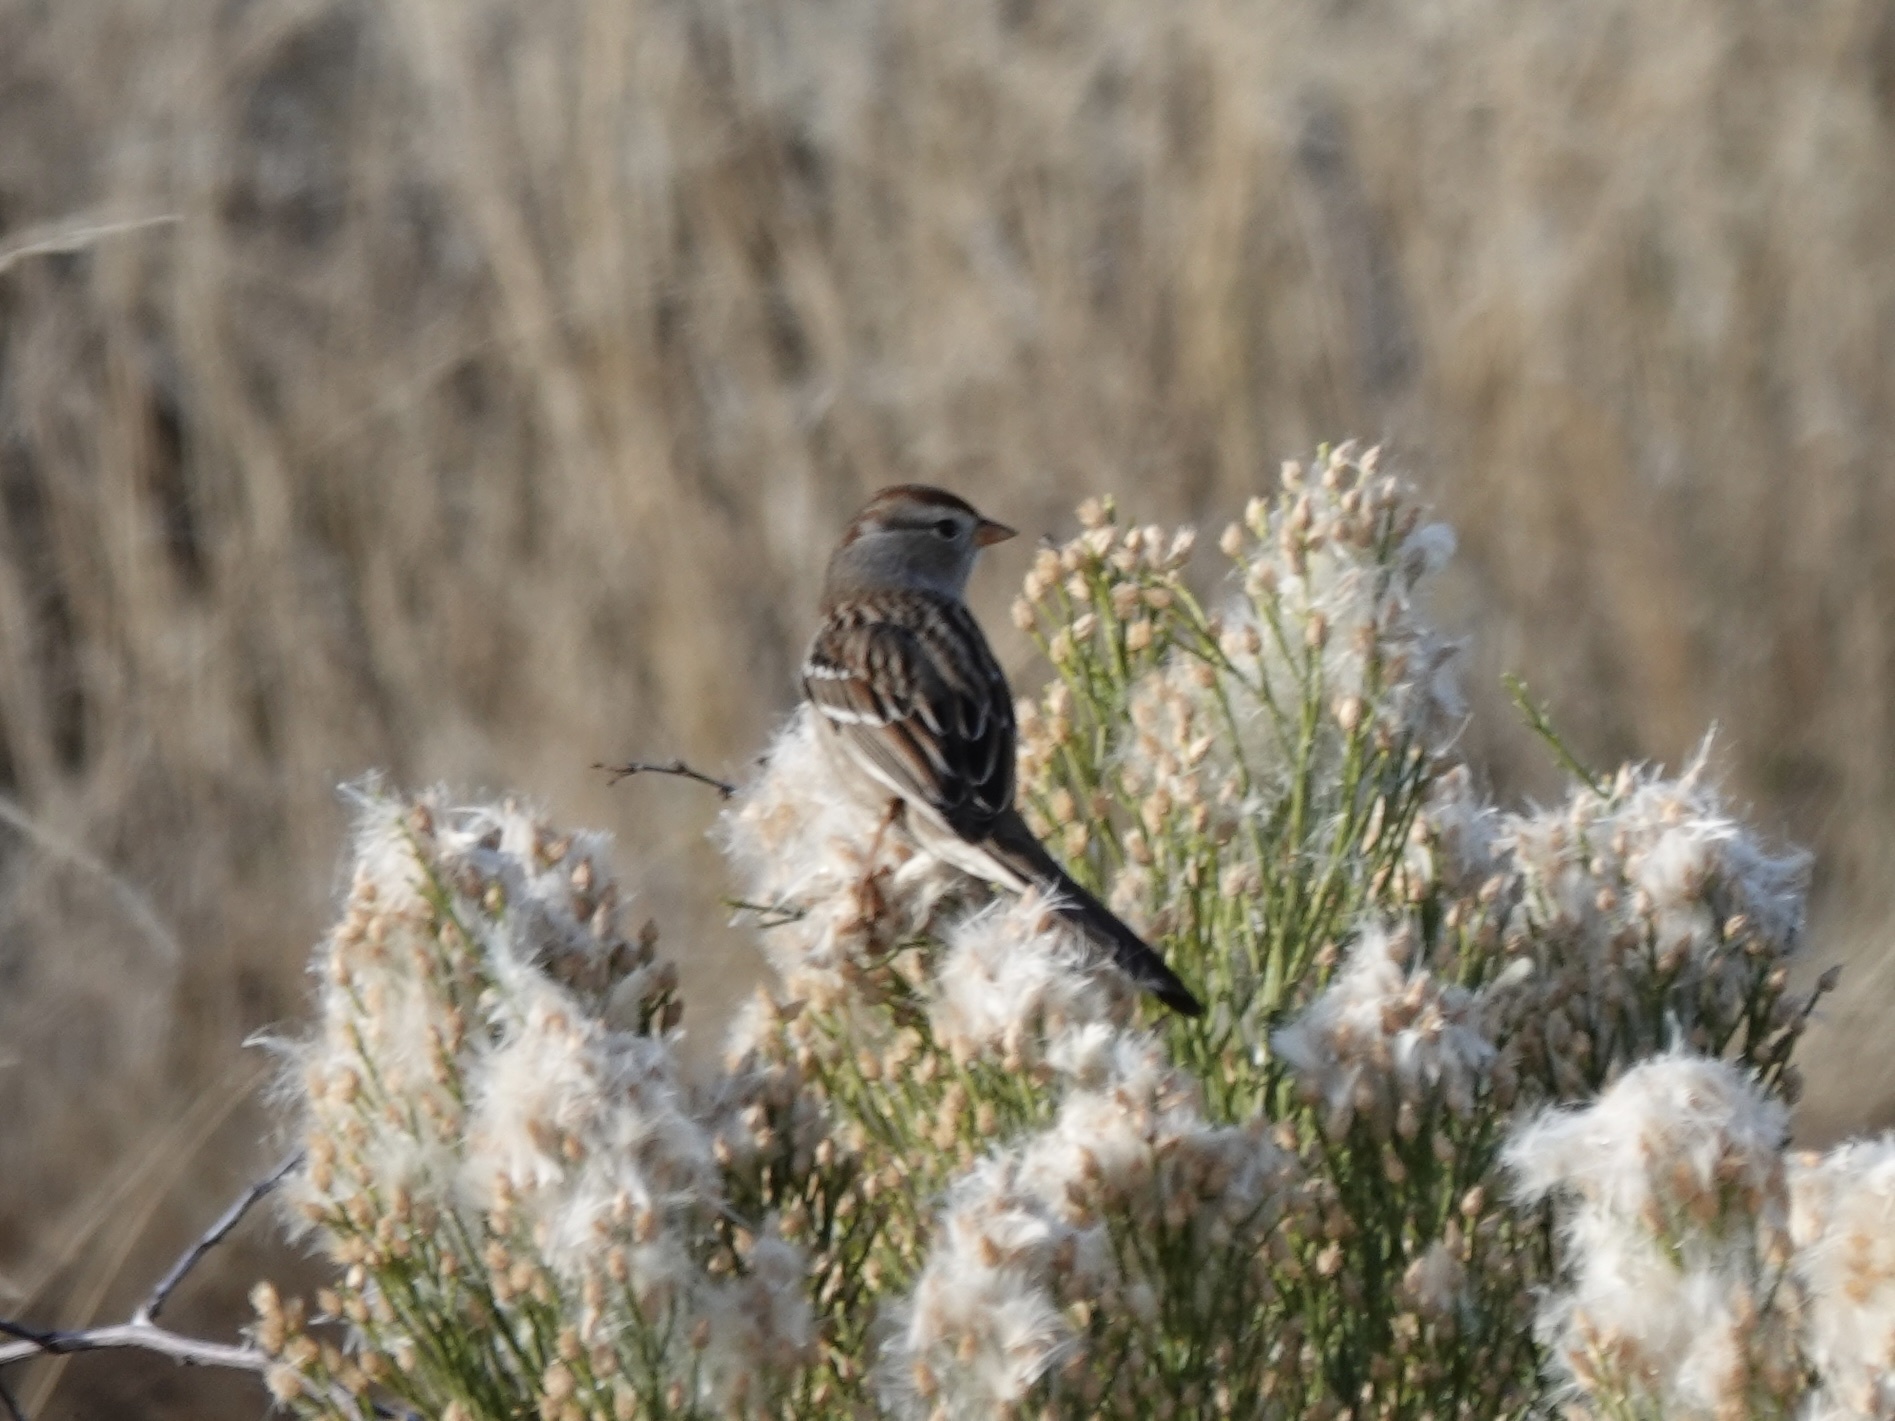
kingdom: Animalia
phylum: Chordata
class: Aves
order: Passeriformes
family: Passerellidae
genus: Zonotrichia
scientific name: Zonotrichia leucophrys
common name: White-crowned sparrow
